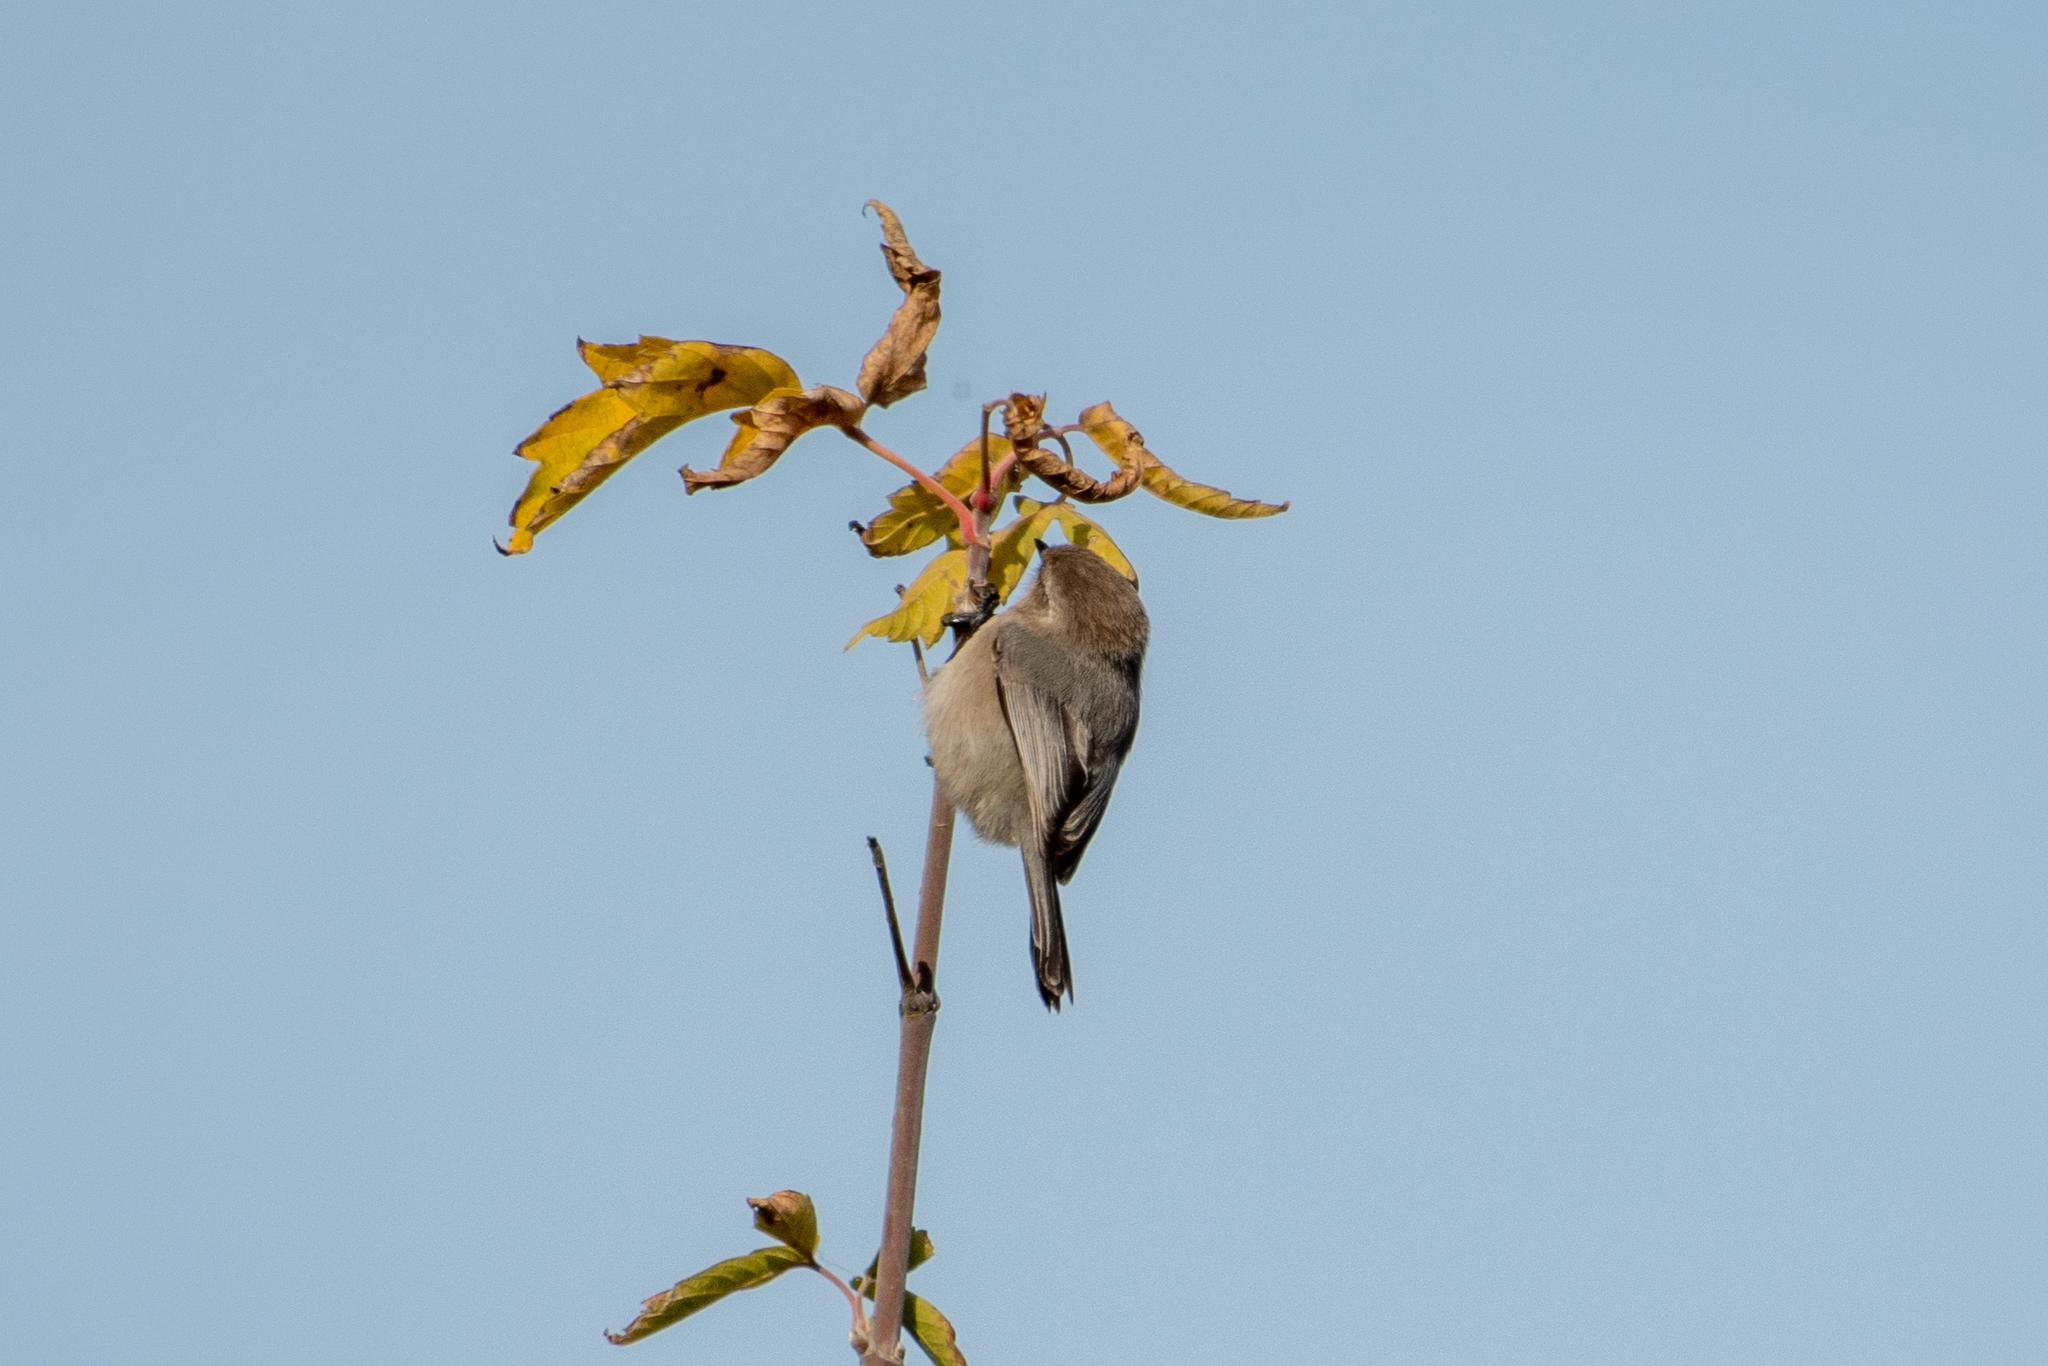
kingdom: Animalia
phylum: Chordata
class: Aves
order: Passeriformes
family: Aegithalidae
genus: Psaltriparus
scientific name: Psaltriparus minimus
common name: American bushtit
